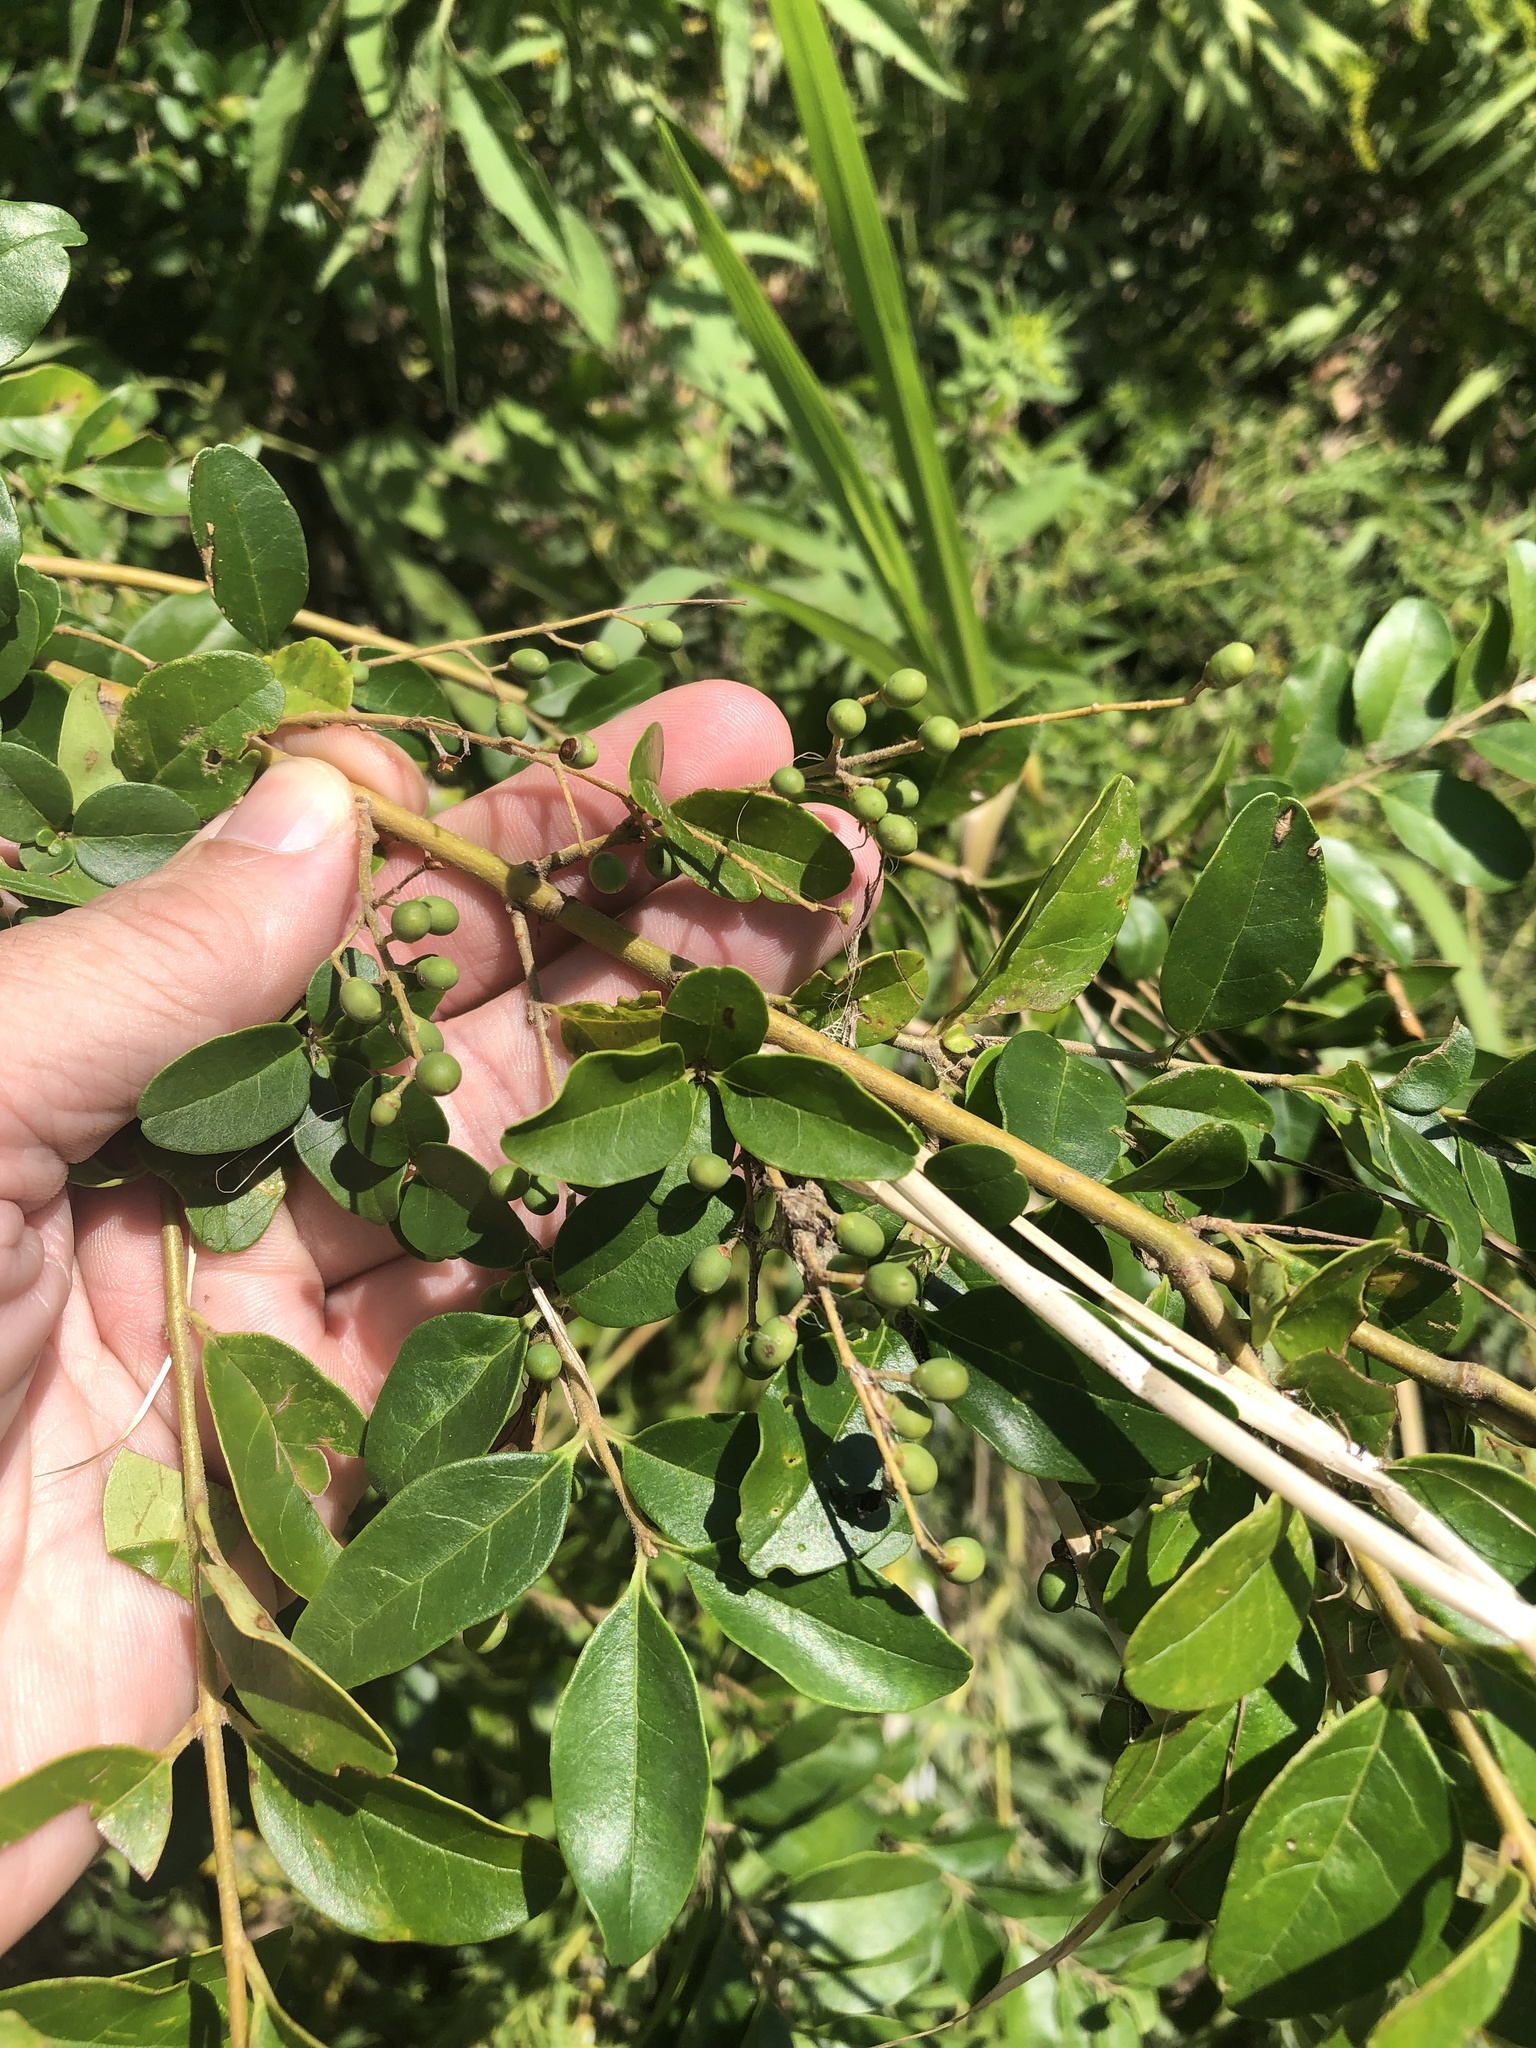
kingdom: Plantae
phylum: Tracheophyta
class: Magnoliopsida
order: Lamiales
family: Oleaceae
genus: Ligustrum
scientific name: Ligustrum sinense
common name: Chinese privet
